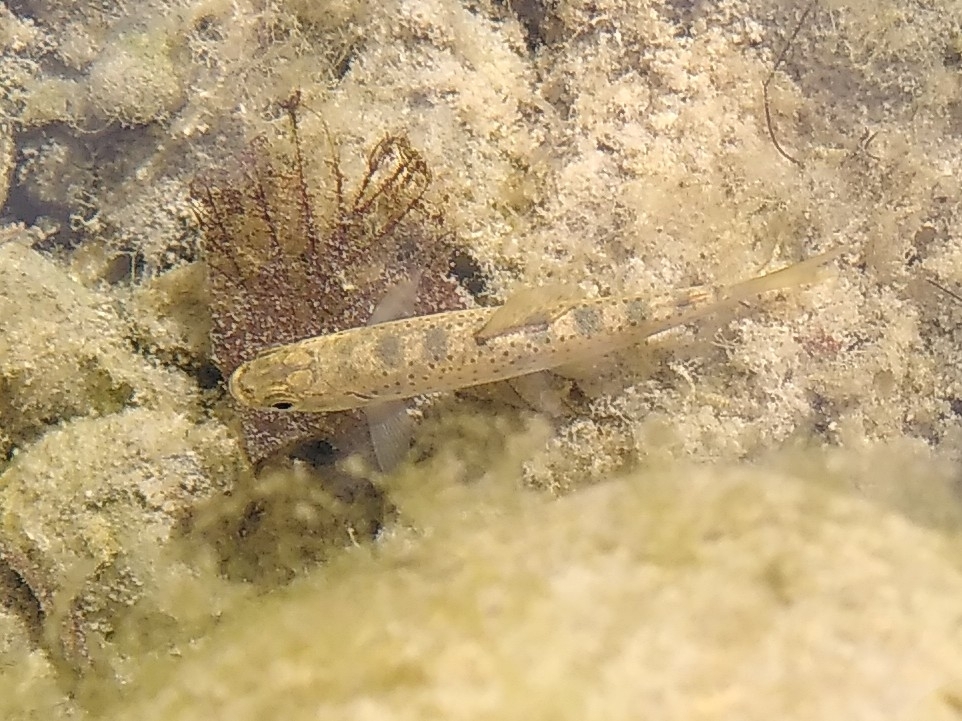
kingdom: Animalia
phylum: Chordata
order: Salmoniformes
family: Salmonidae
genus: Salmo
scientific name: Salmo trutta
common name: Brown trout
